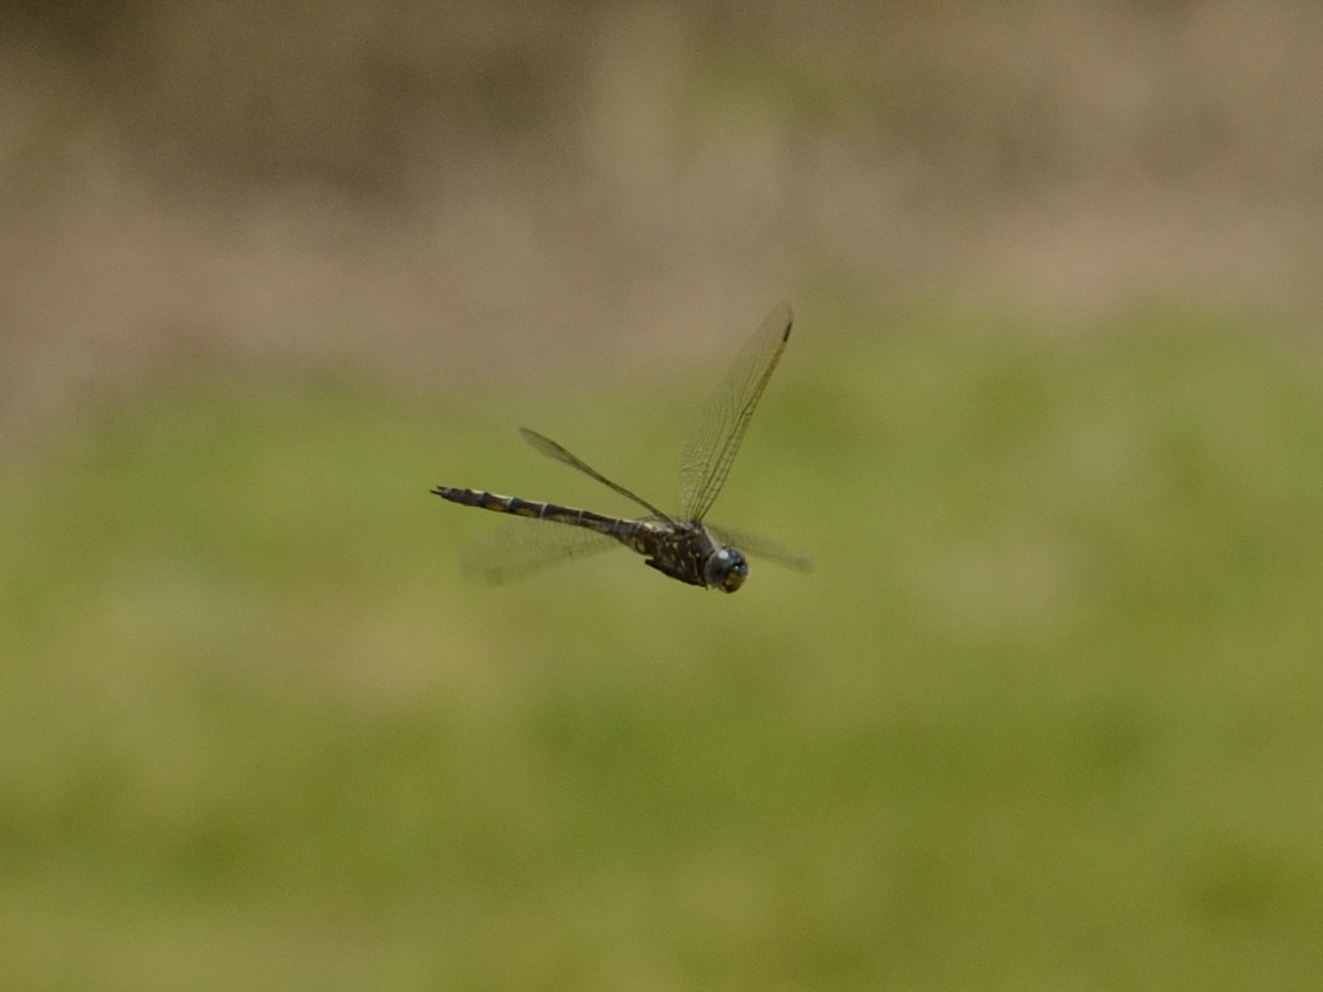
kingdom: Animalia
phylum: Arthropoda
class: Insecta
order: Odonata
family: Libellulidae
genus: Zygonyx
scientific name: Zygonyx natalensis
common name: Blue cascader
